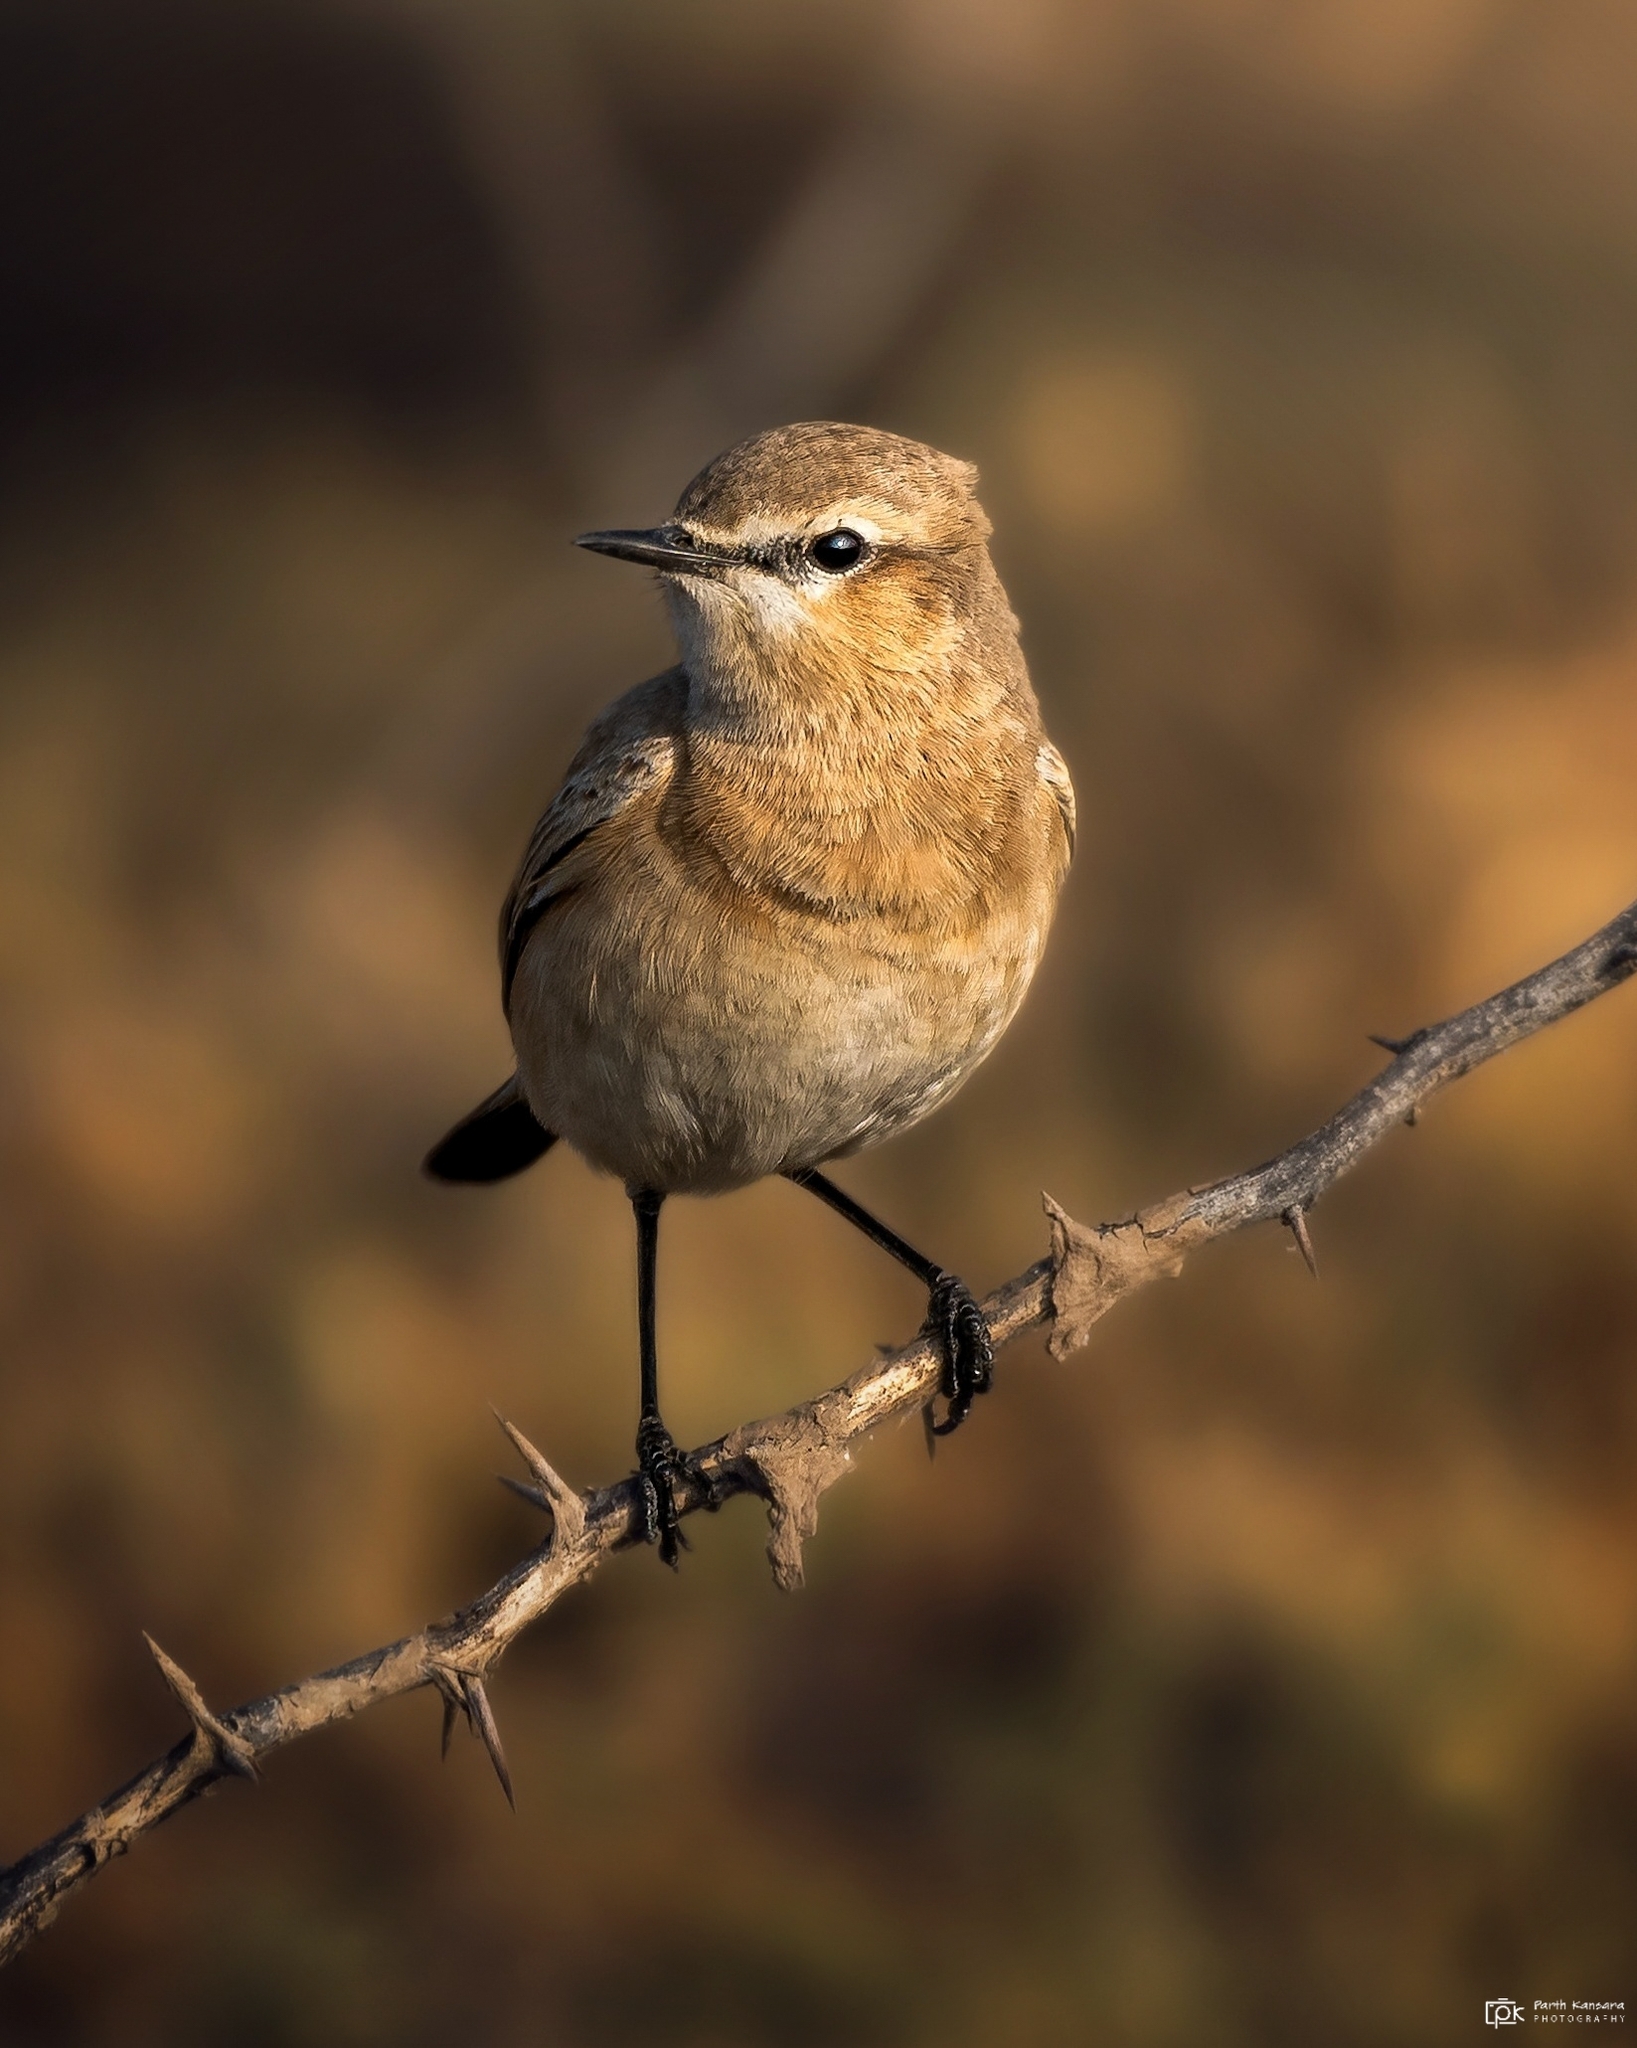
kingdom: Animalia
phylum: Chordata
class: Aves
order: Passeriformes
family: Muscicapidae
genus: Oenanthe
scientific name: Oenanthe isabellina
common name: Isabelline wheatear
